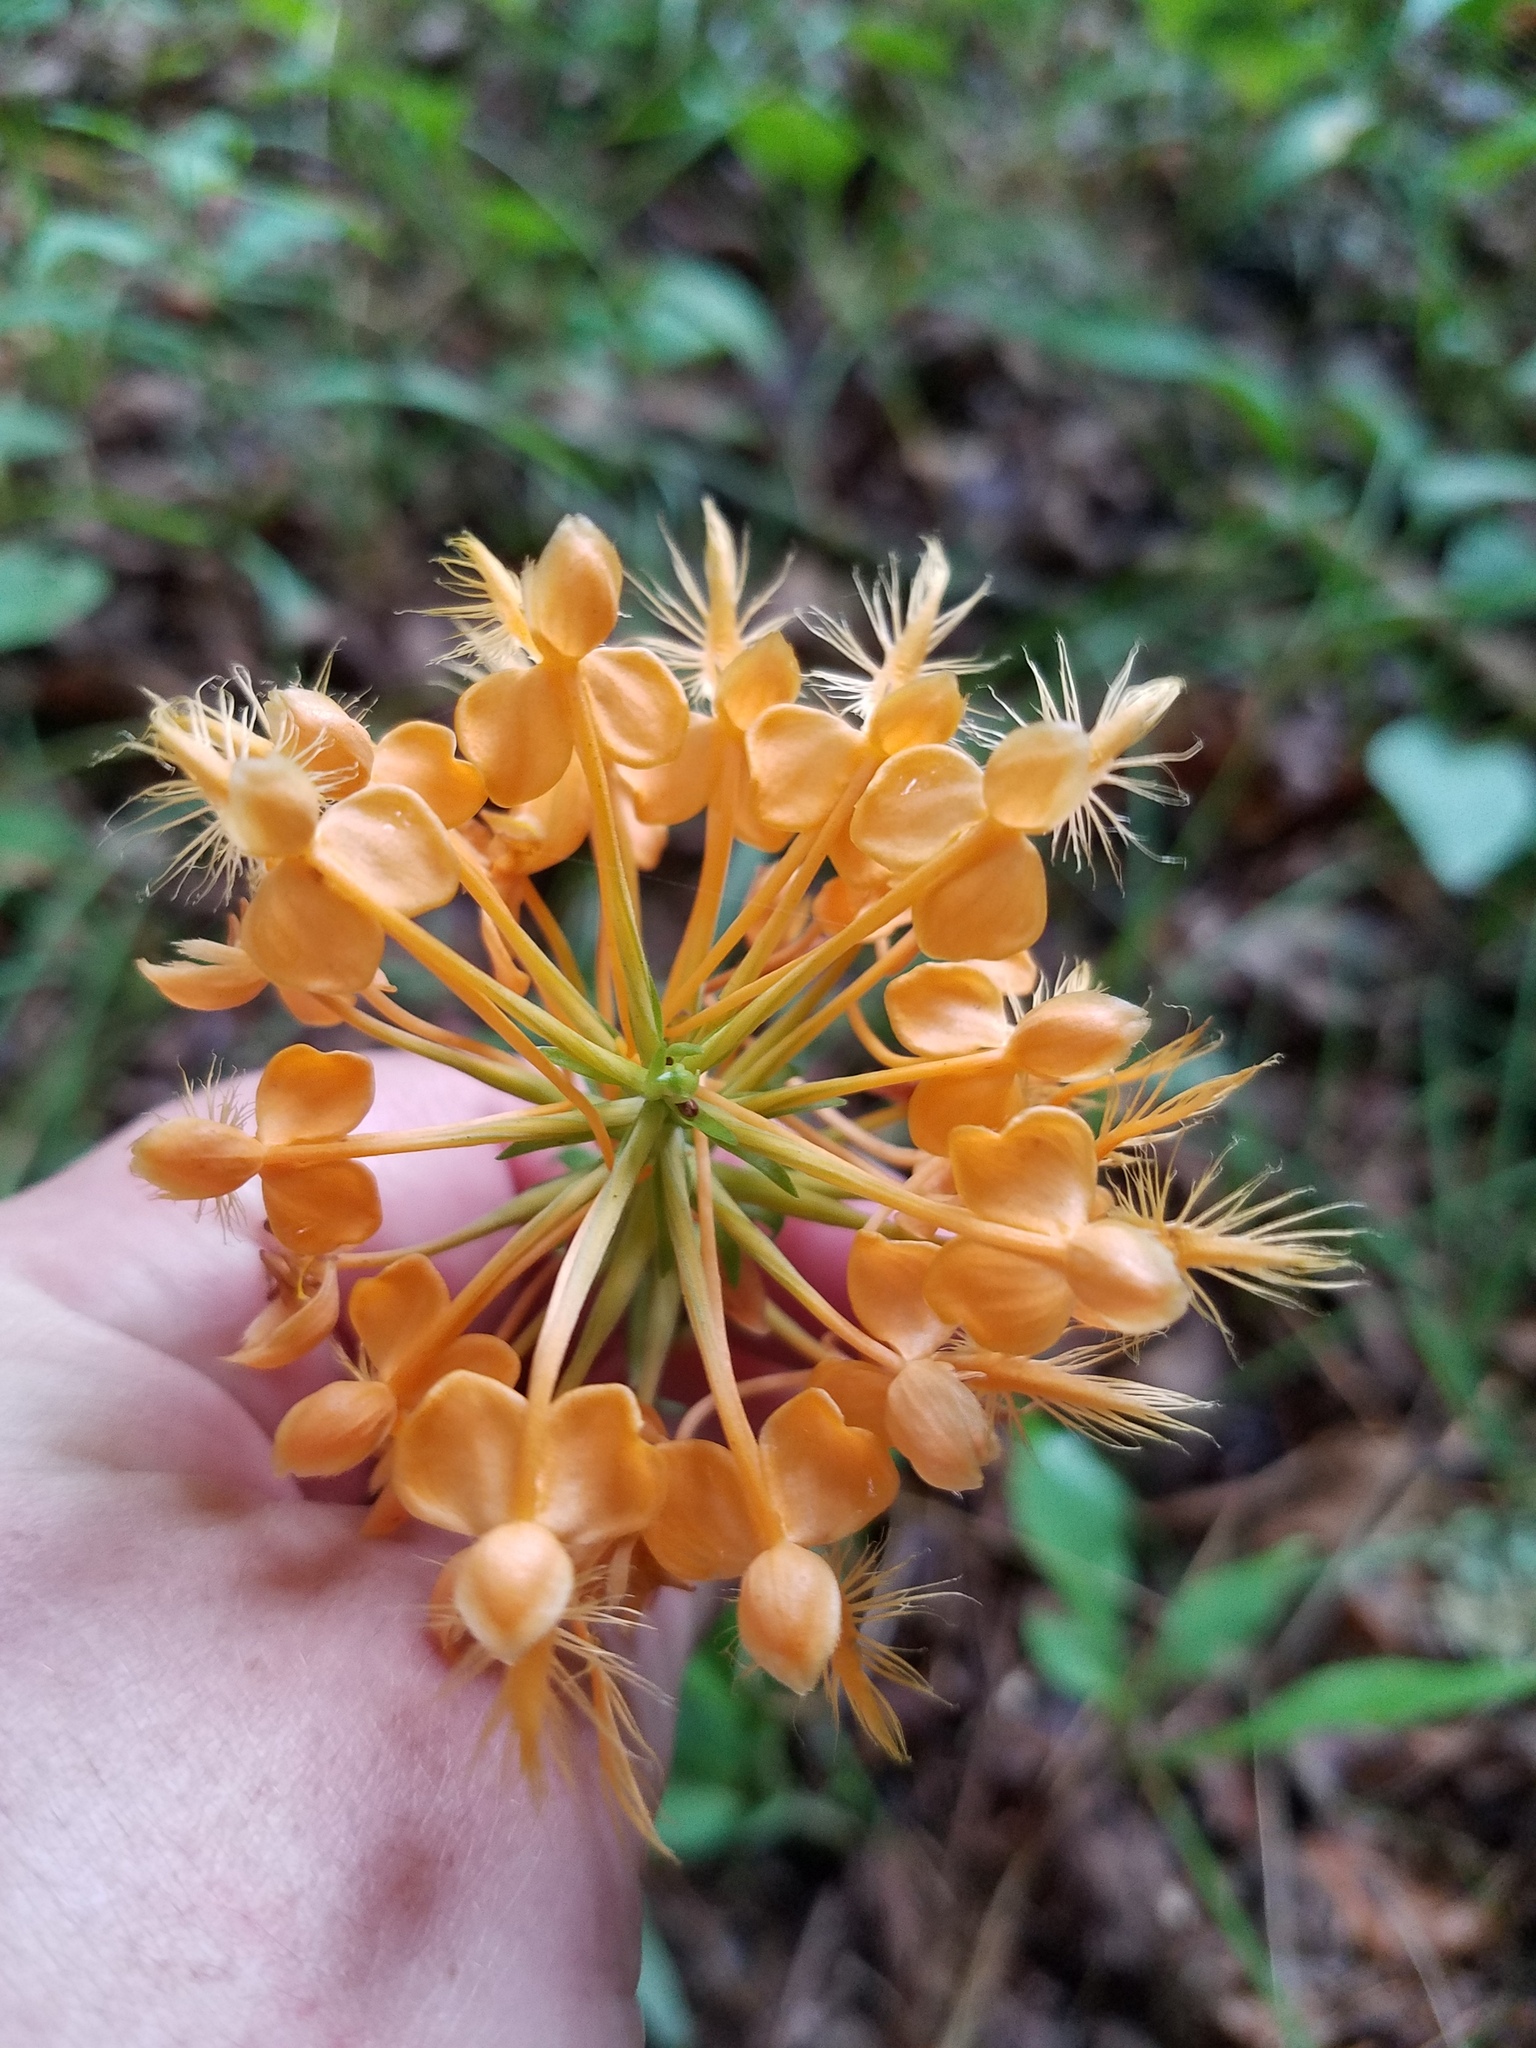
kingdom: Plantae
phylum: Tracheophyta
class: Liliopsida
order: Asparagales
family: Orchidaceae
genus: Platanthera
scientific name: Platanthera ciliaris
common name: Yellow fringed orchid
